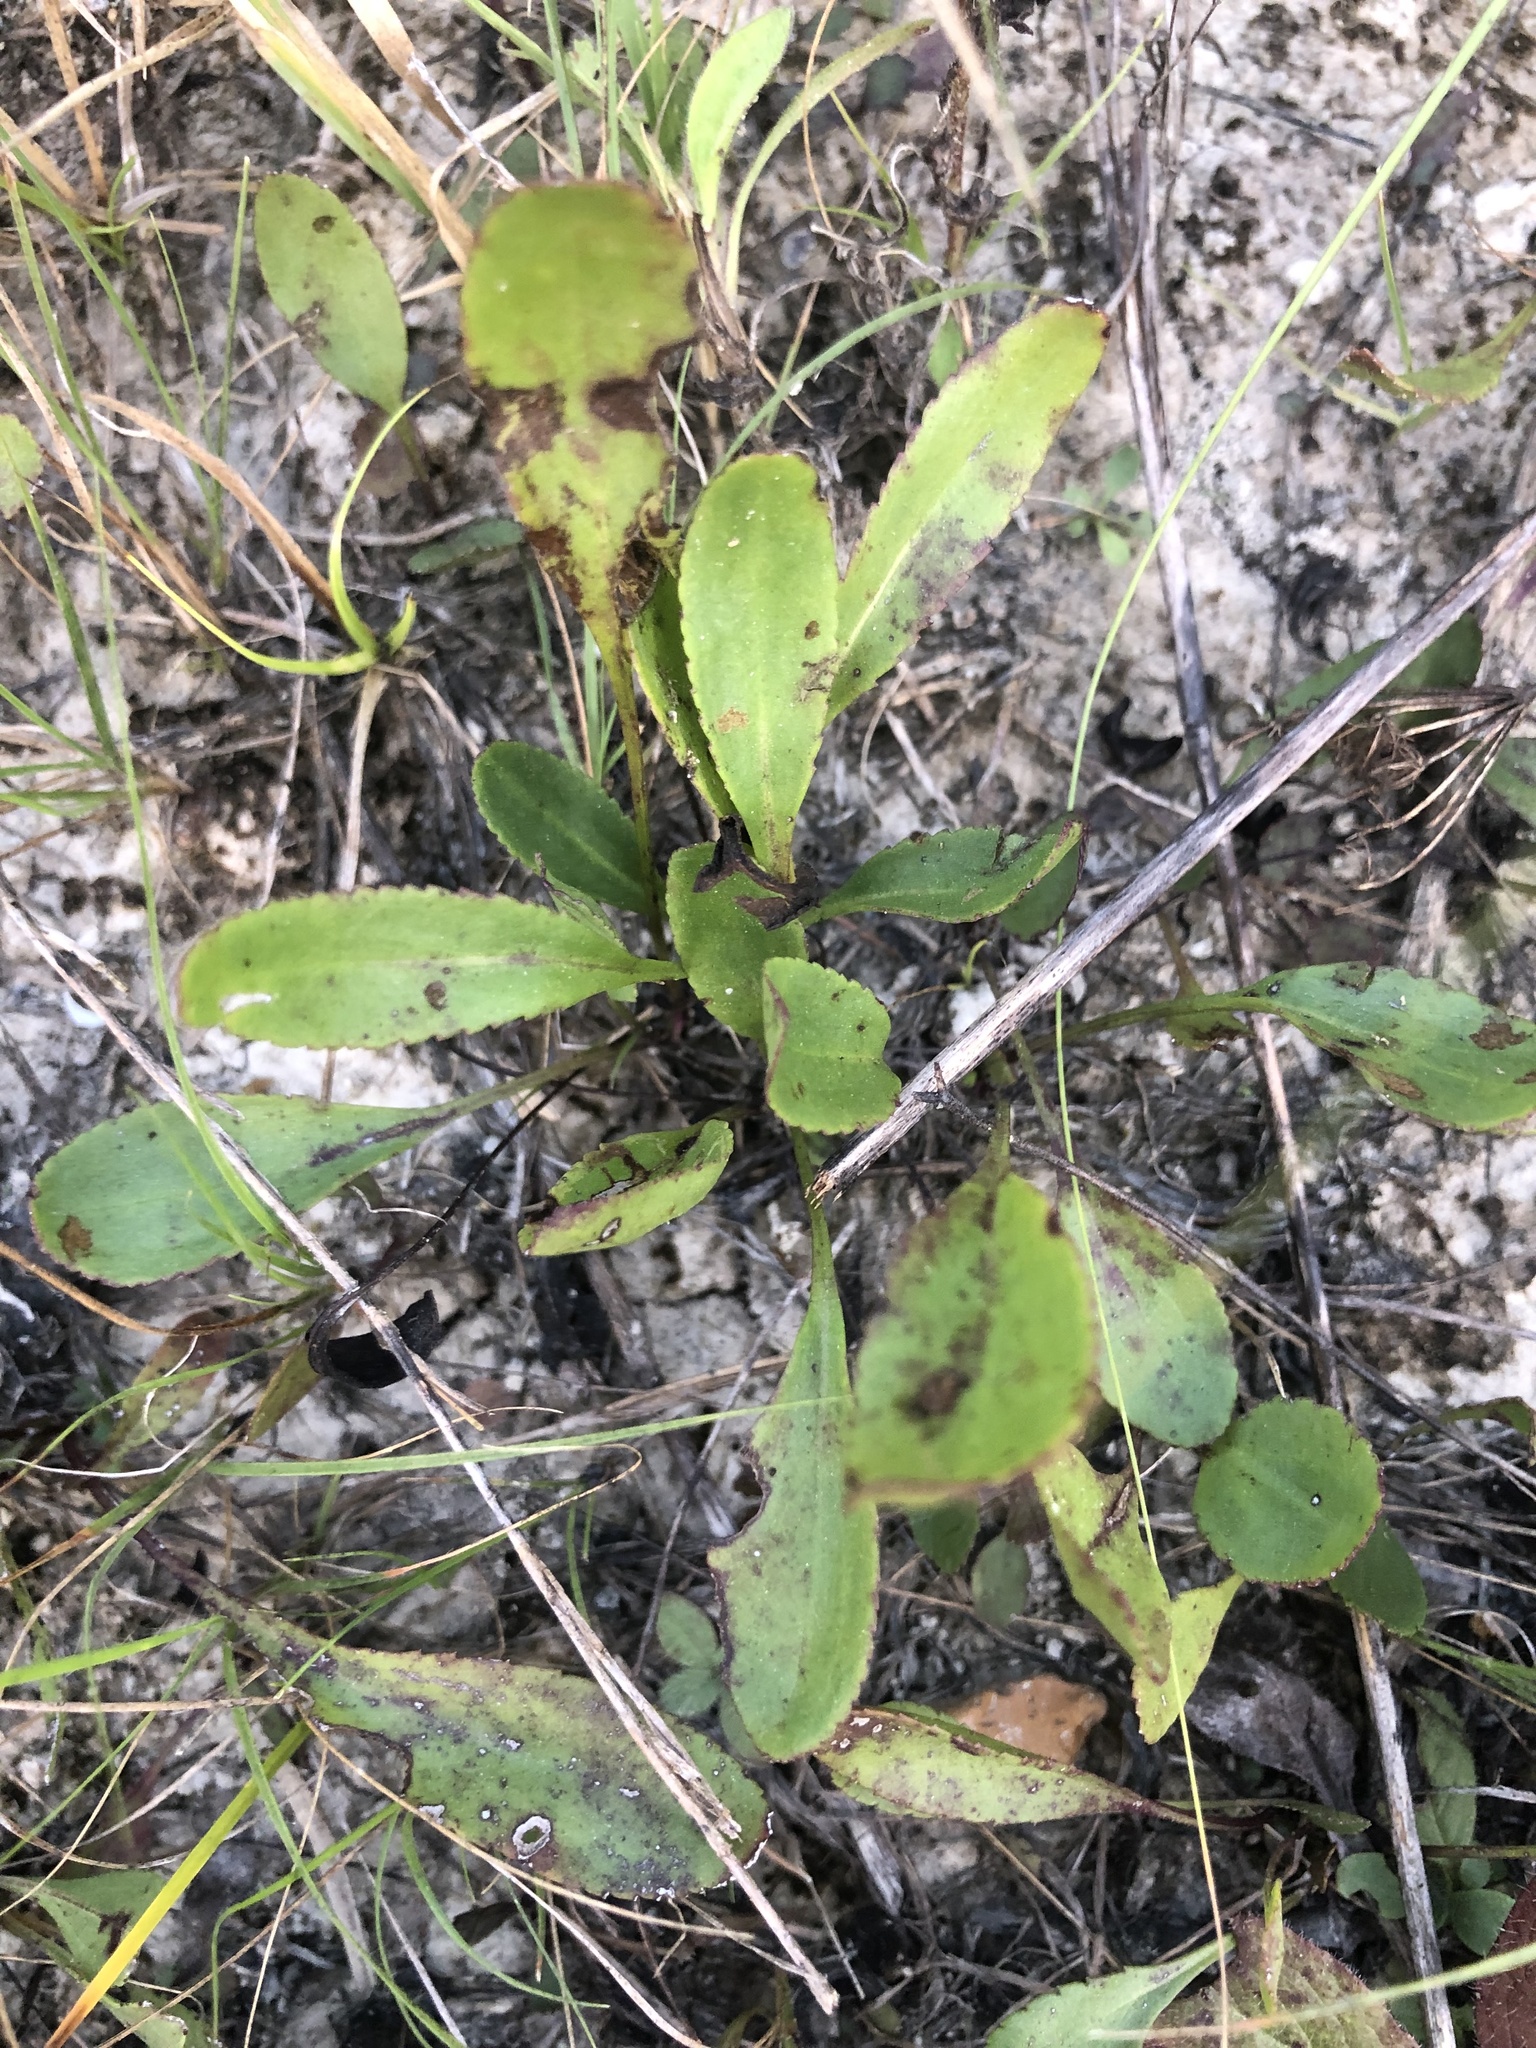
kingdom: Plantae
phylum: Tracheophyta
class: Magnoliopsida
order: Asterales
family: Asteraceae
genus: Packera
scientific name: Packera paupercula
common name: Balsam groundsel
